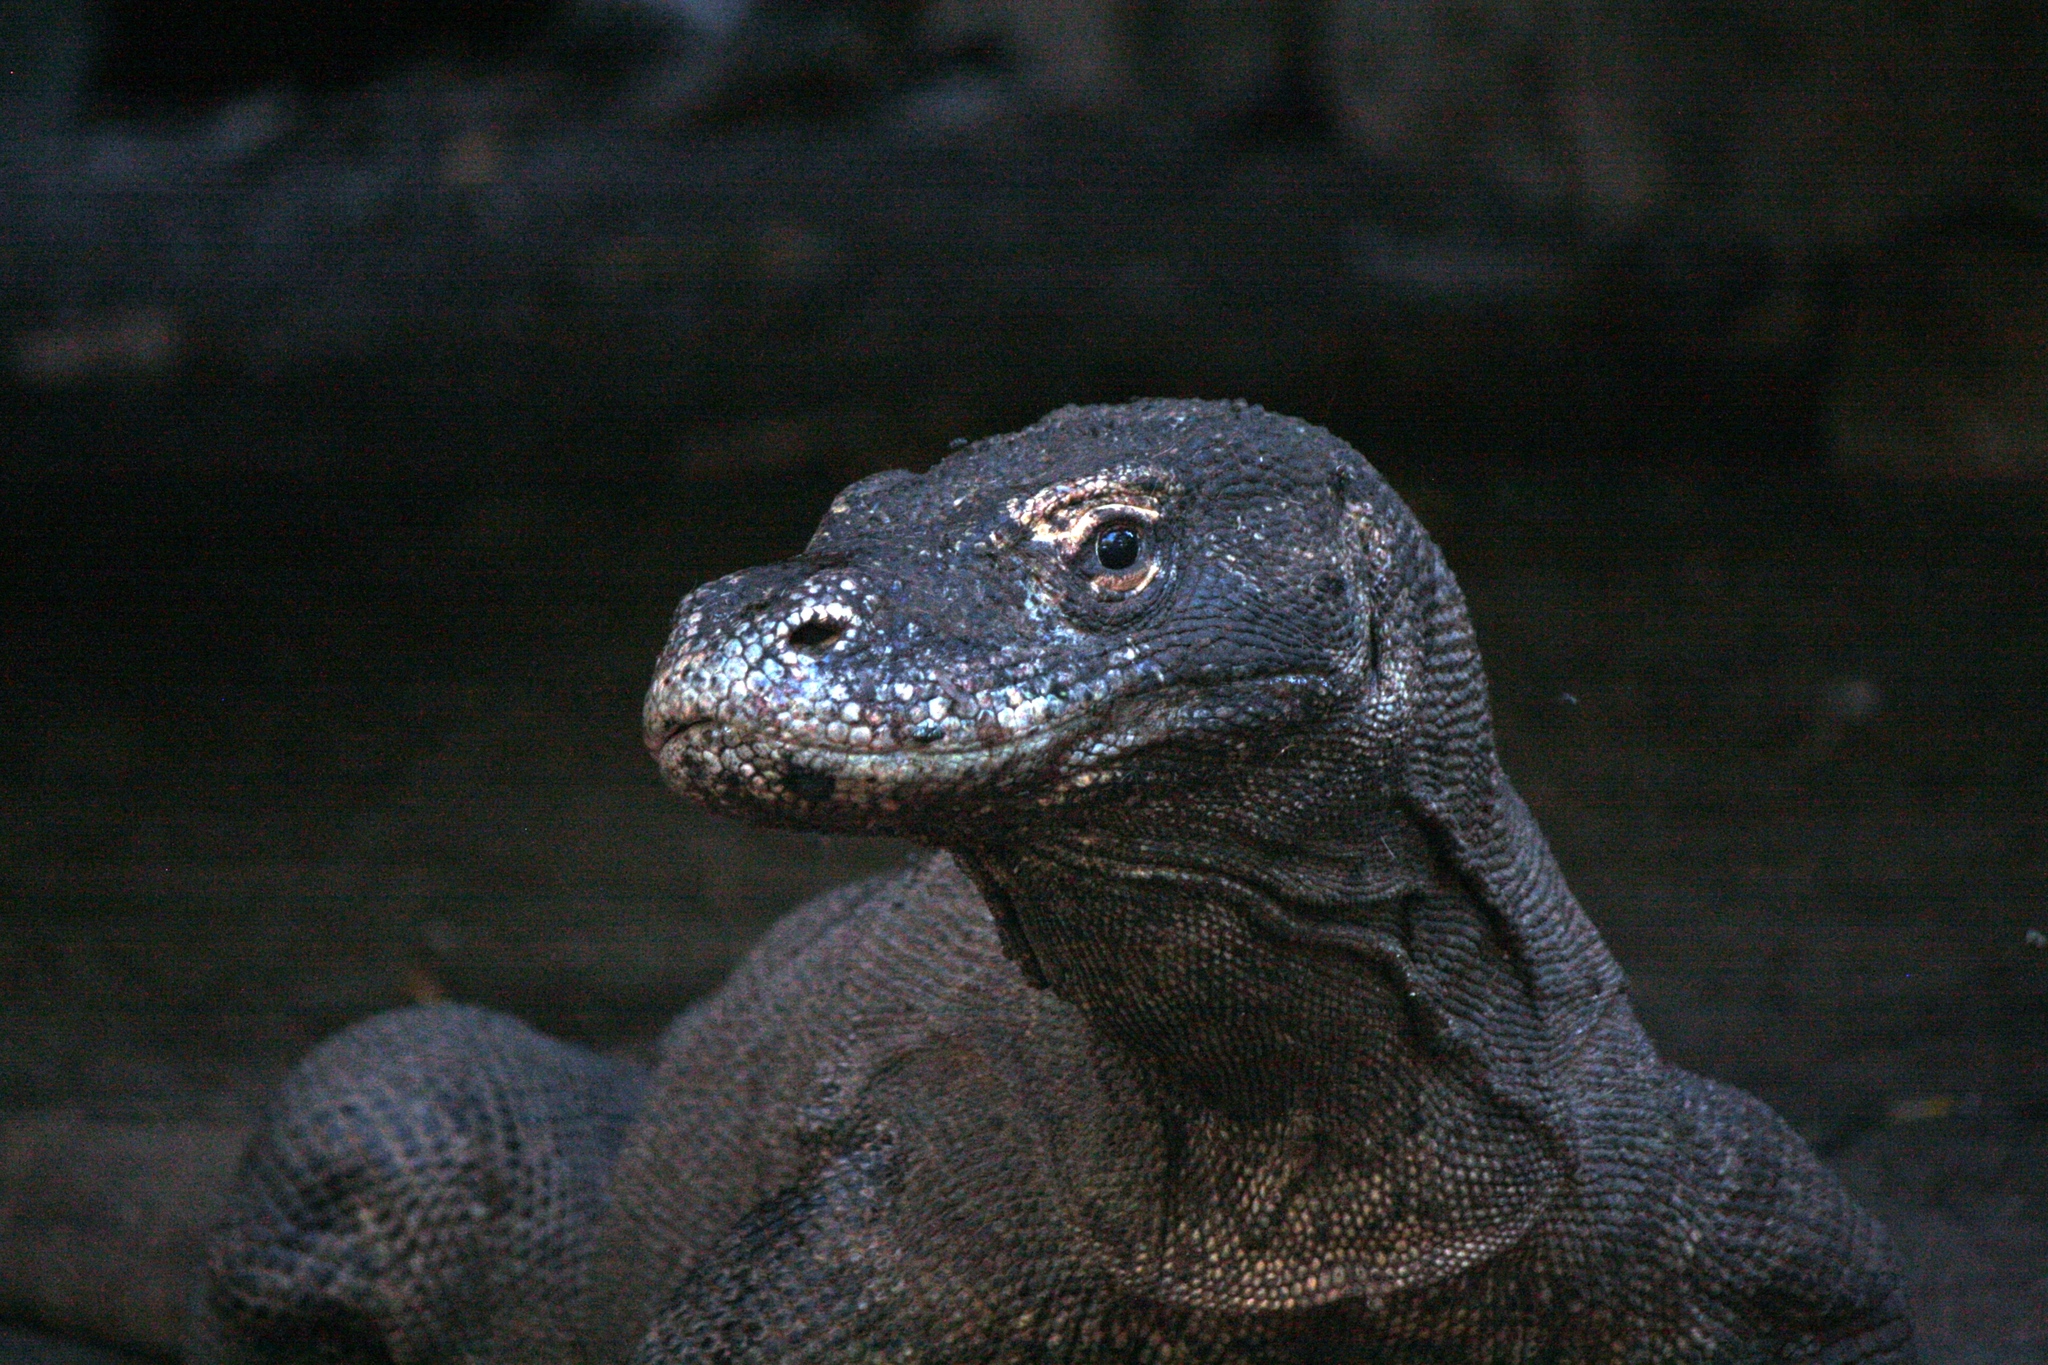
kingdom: Animalia
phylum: Chordata
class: Squamata
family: Varanidae
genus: Varanus
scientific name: Varanus komodoensis
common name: Komodo dragon
